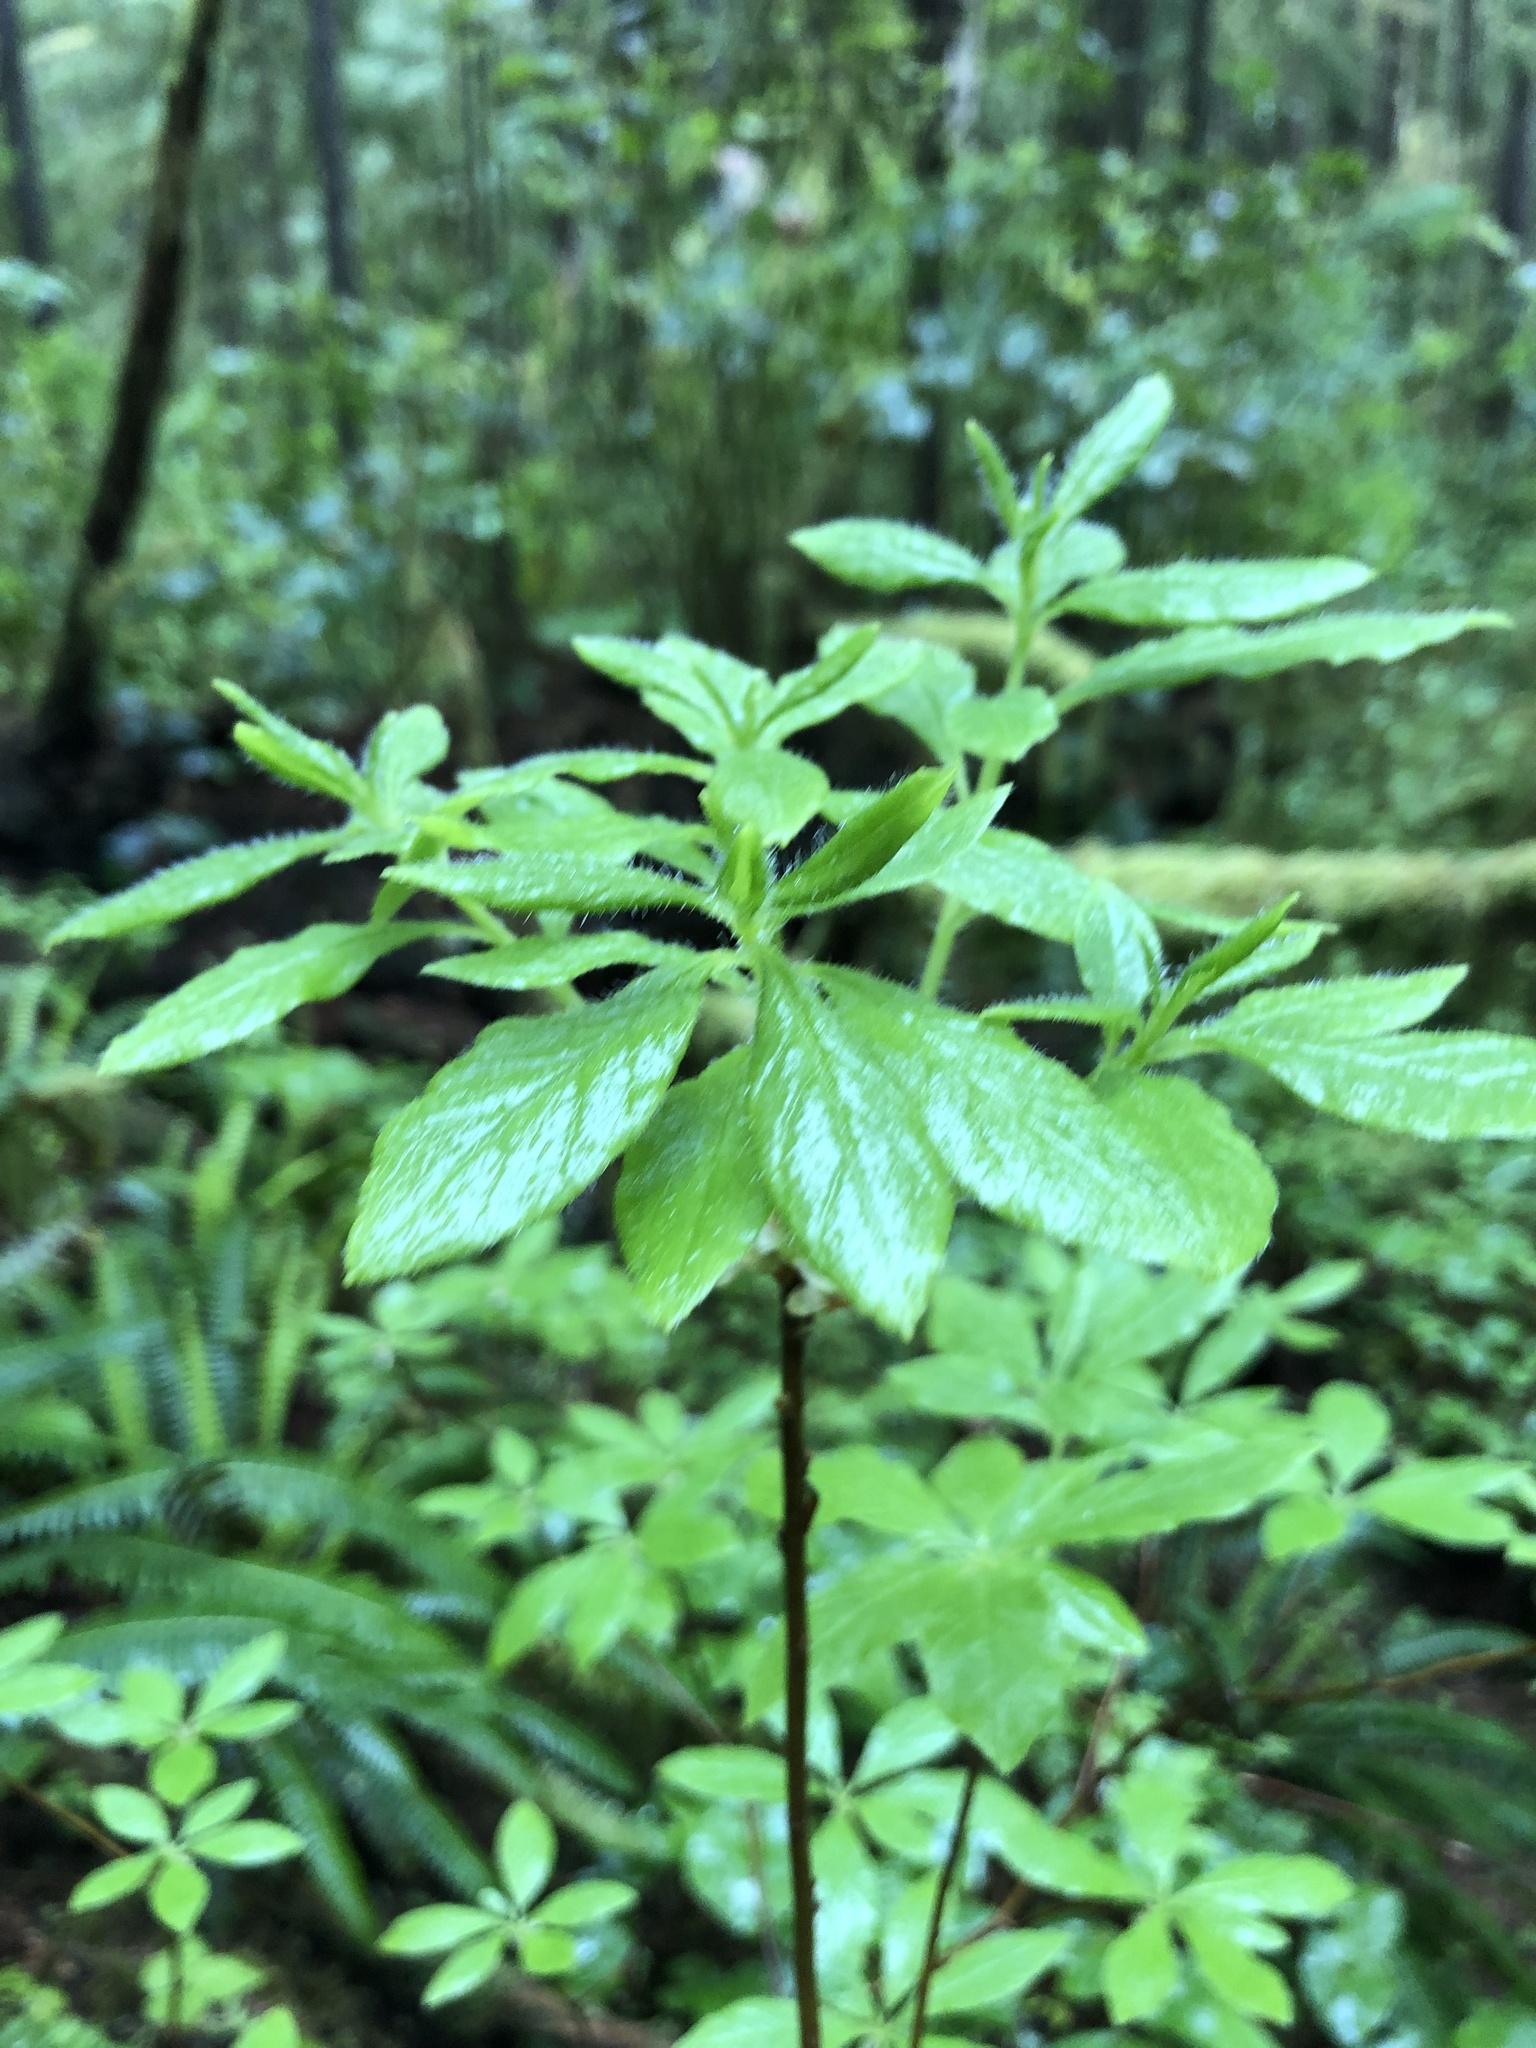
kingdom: Plantae
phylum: Tracheophyta
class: Magnoliopsida
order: Ericales
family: Ericaceae
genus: Rhododendron
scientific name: Rhododendron menziesii
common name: Pacific menziesia
